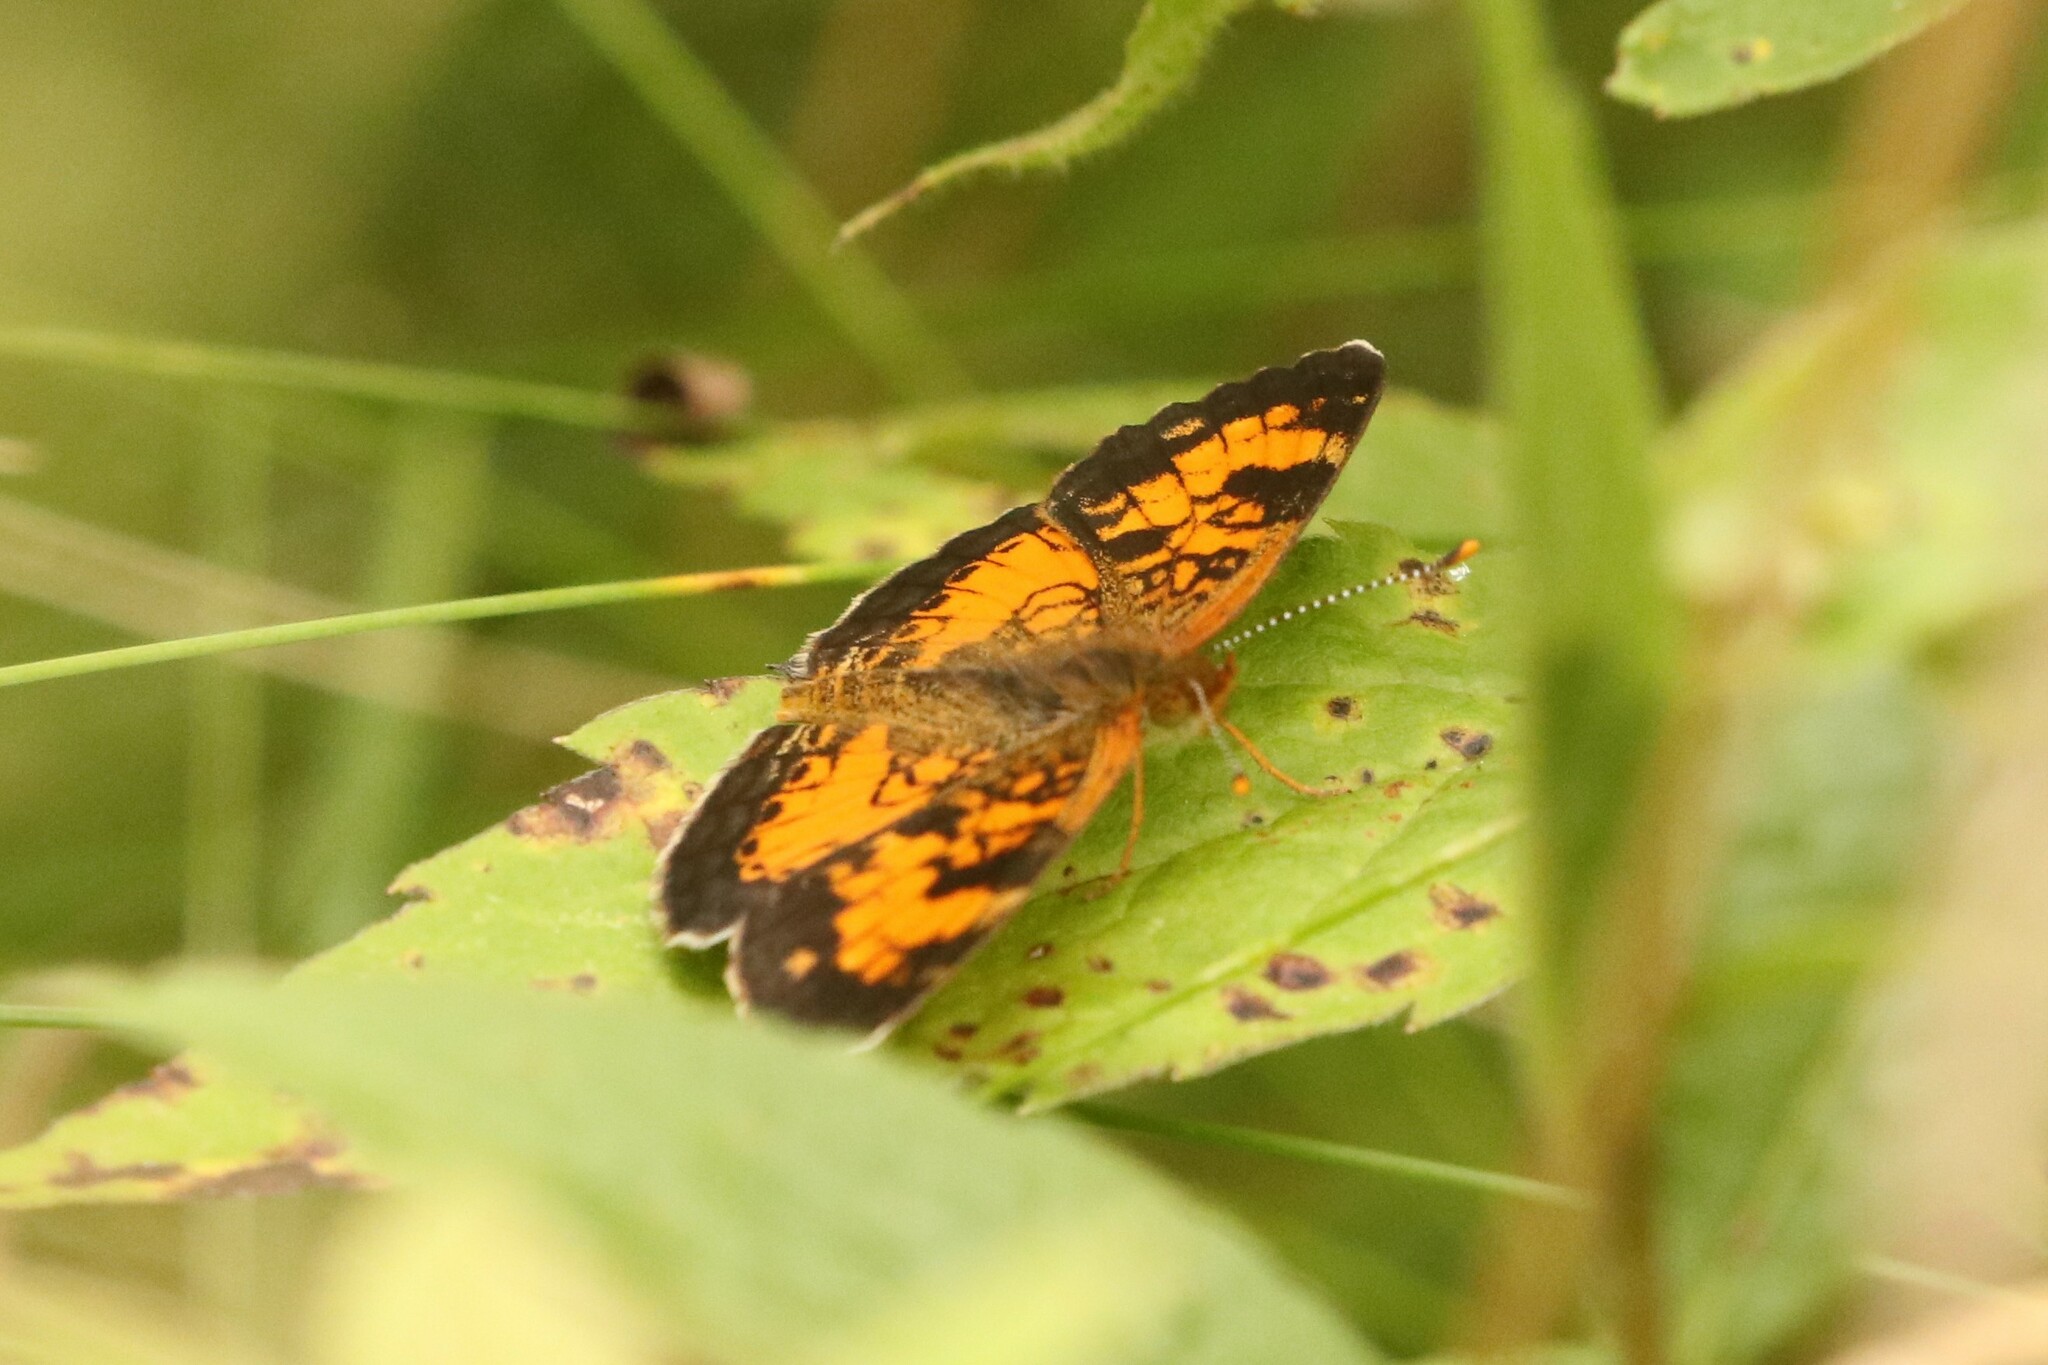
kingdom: Animalia
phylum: Arthropoda
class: Insecta
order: Lepidoptera
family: Nymphalidae
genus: Phyciodes
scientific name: Phyciodes tharos
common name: Pearl crescent
